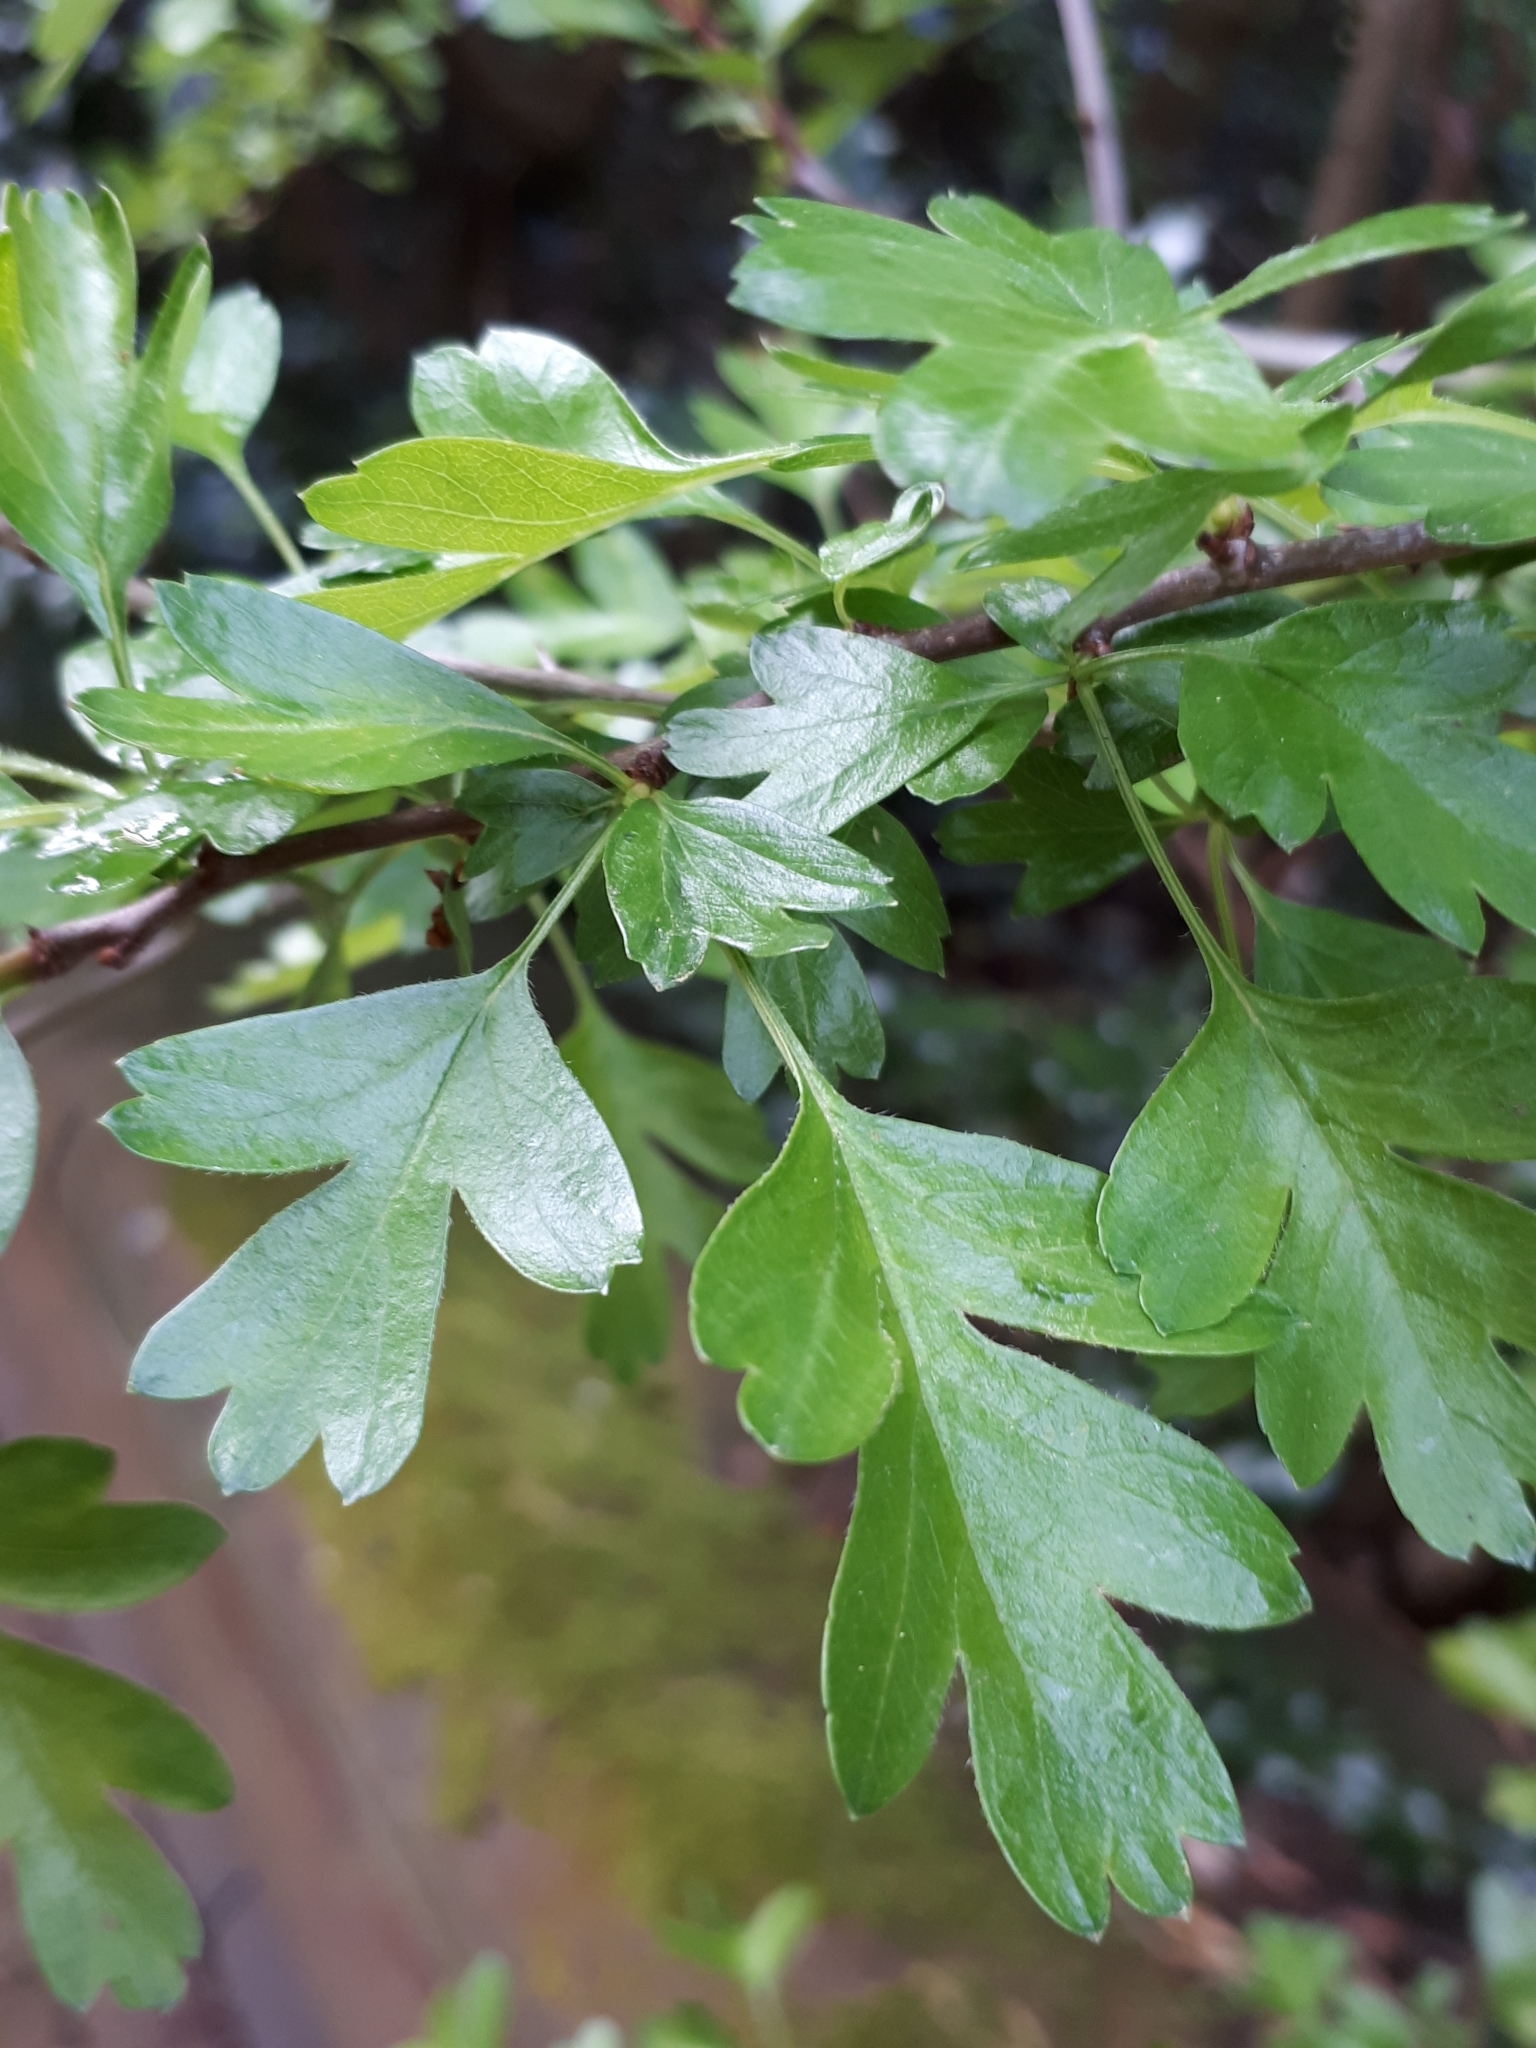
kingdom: Plantae
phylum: Tracheophyta
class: Magnoliopsida
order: Rosales
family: Rosaceae
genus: Crataegus
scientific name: Crataegus monogyna
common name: Hawthorn
